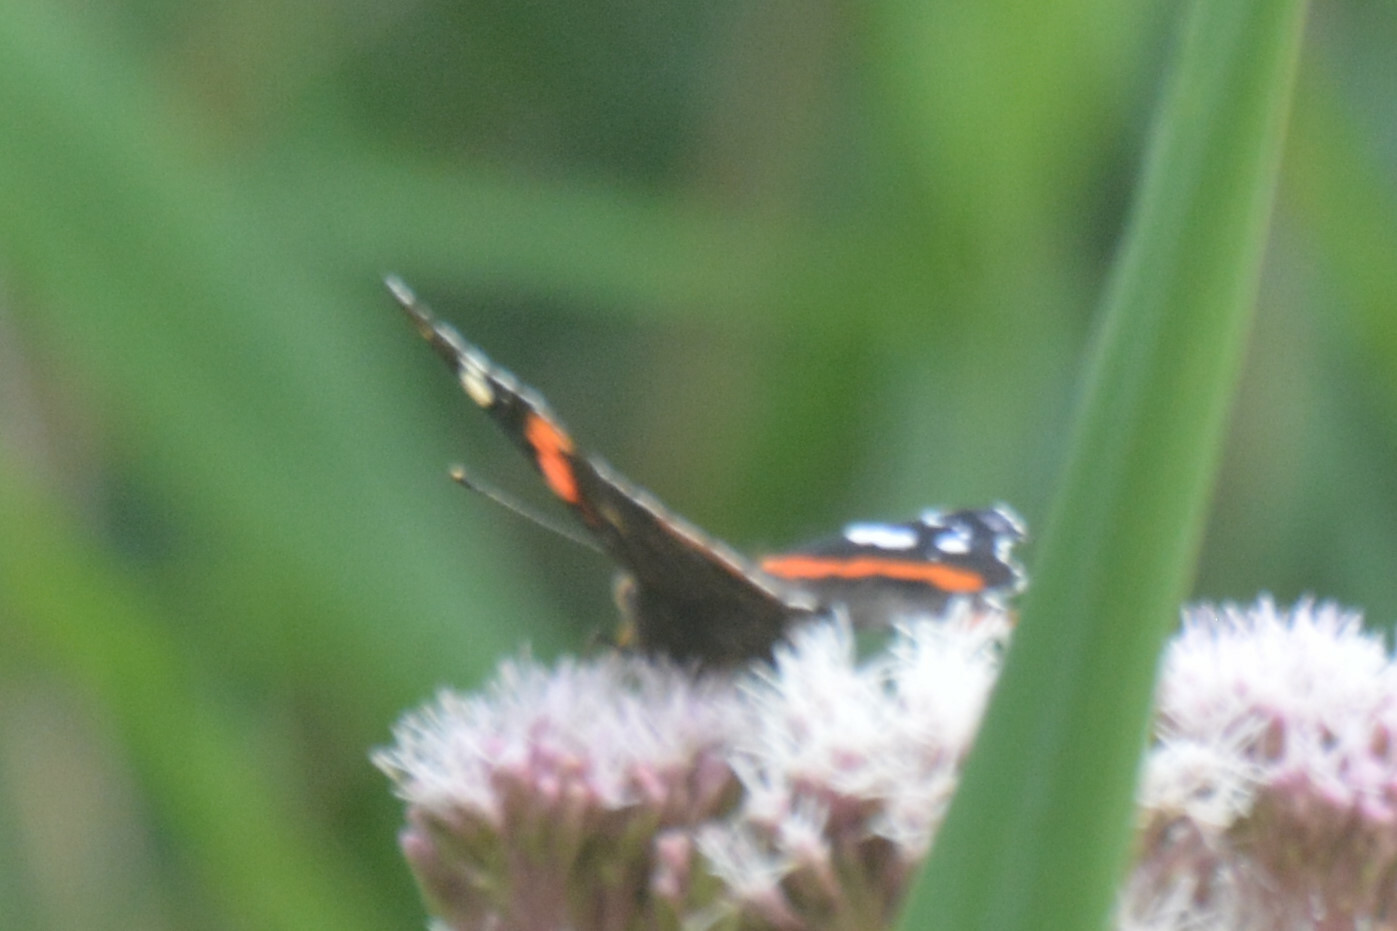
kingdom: Animalia
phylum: Arthropoda
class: Insecta
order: Lepidoptera
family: Nymphalidae
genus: Vanessa
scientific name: Vanessa atalanta
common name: Red admiral
